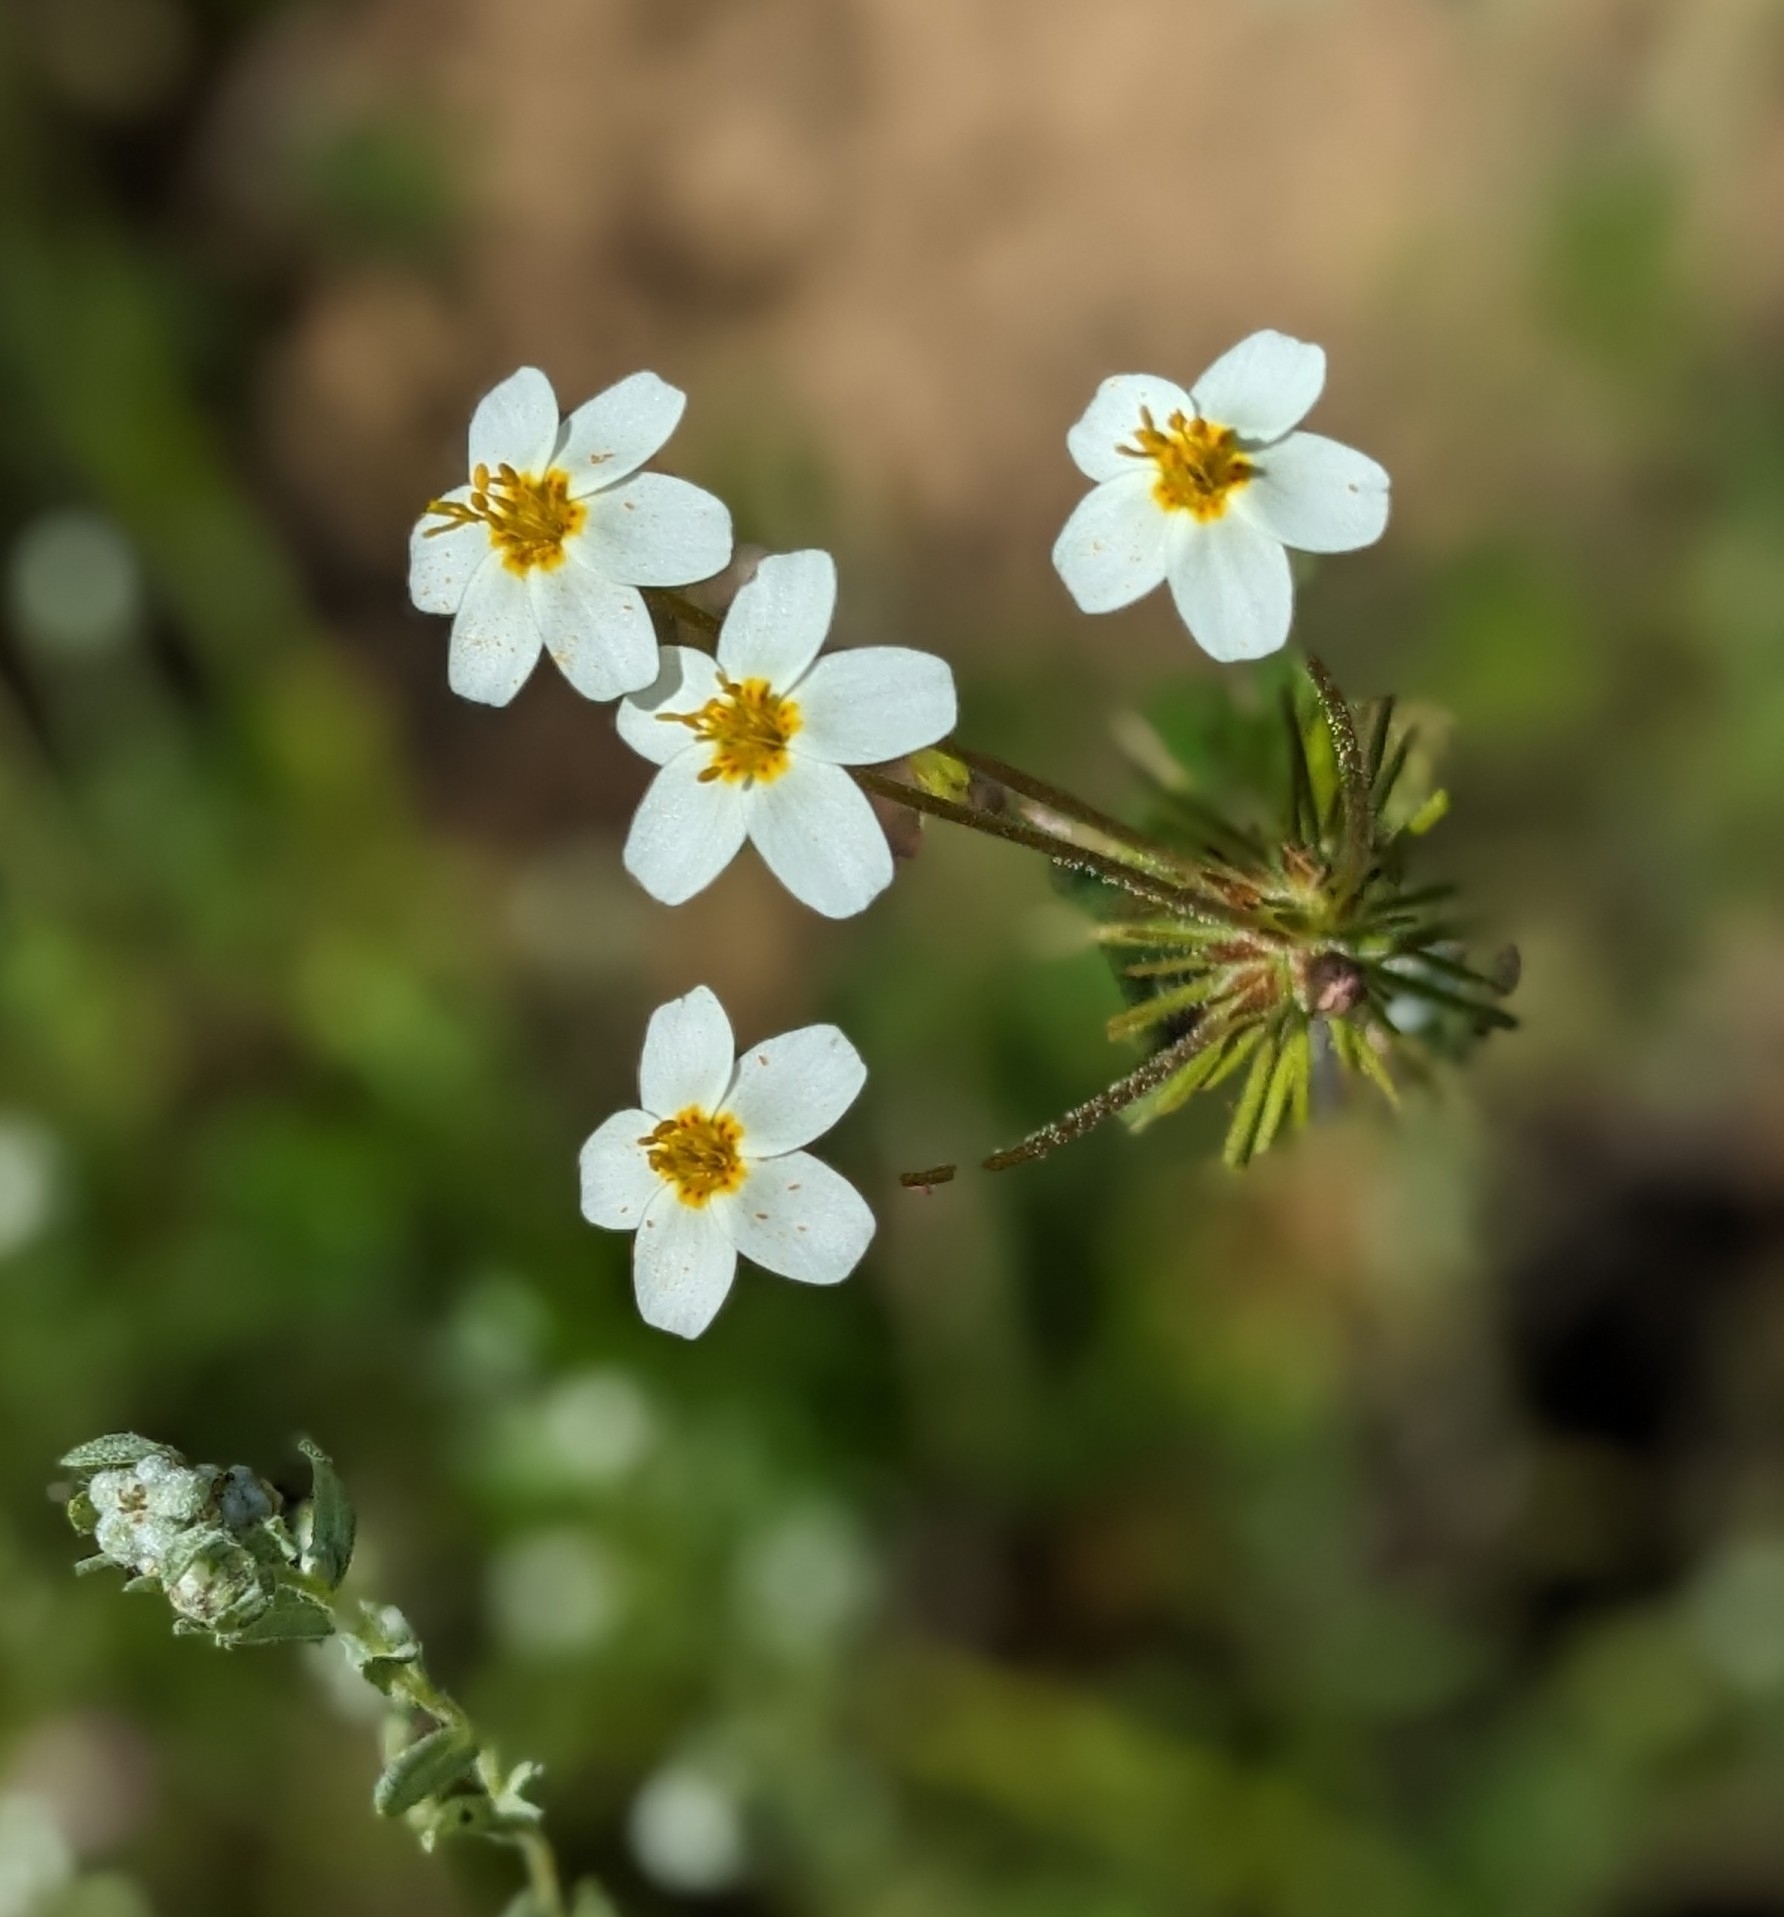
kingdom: Plantae
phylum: Tracheophyta
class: Magnoliopsida
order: Ericales
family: Polemoniaceae
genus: Leptosiphon
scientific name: Leptosiphon parviflorus
